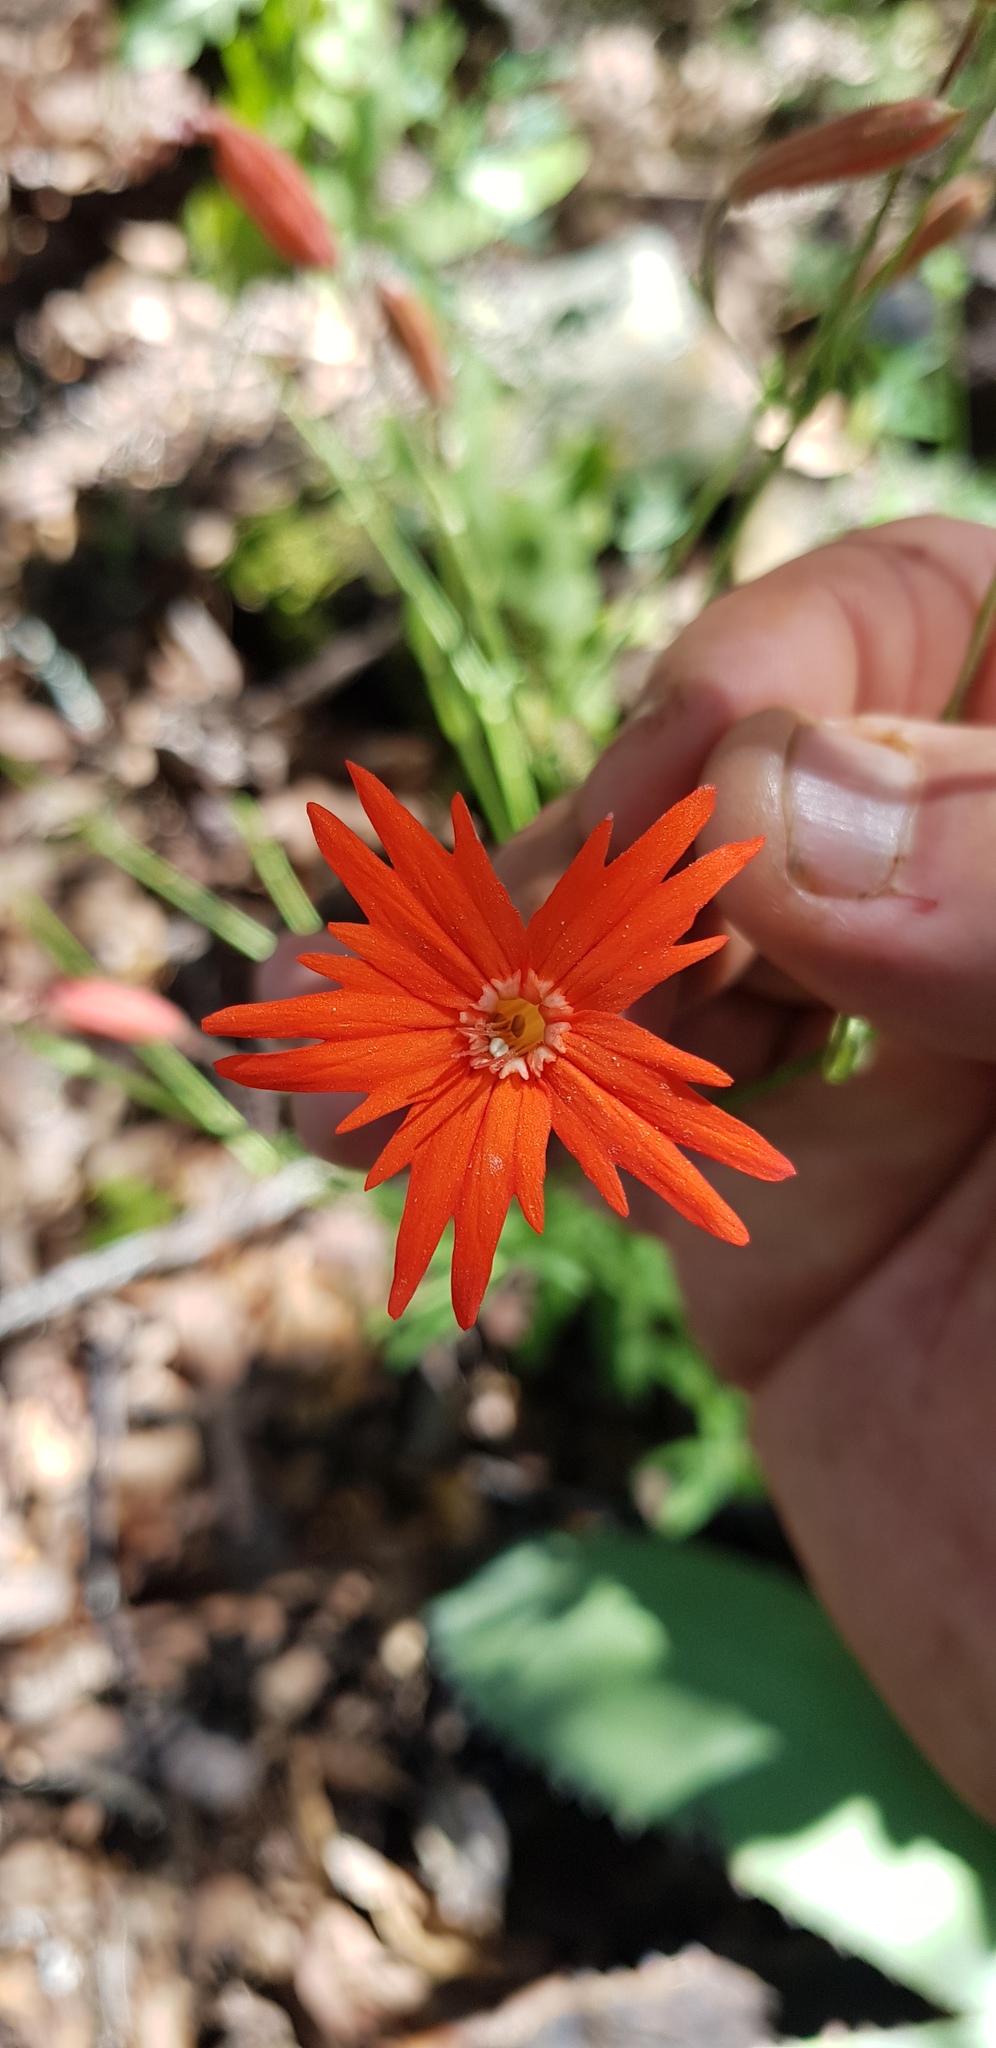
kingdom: Plantae
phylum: Tracheophyta
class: Magnoliopsida
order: Caryophyllales
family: Caryophyllaceae
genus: Silene
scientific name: Silene laciniata
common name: Indian-pink
